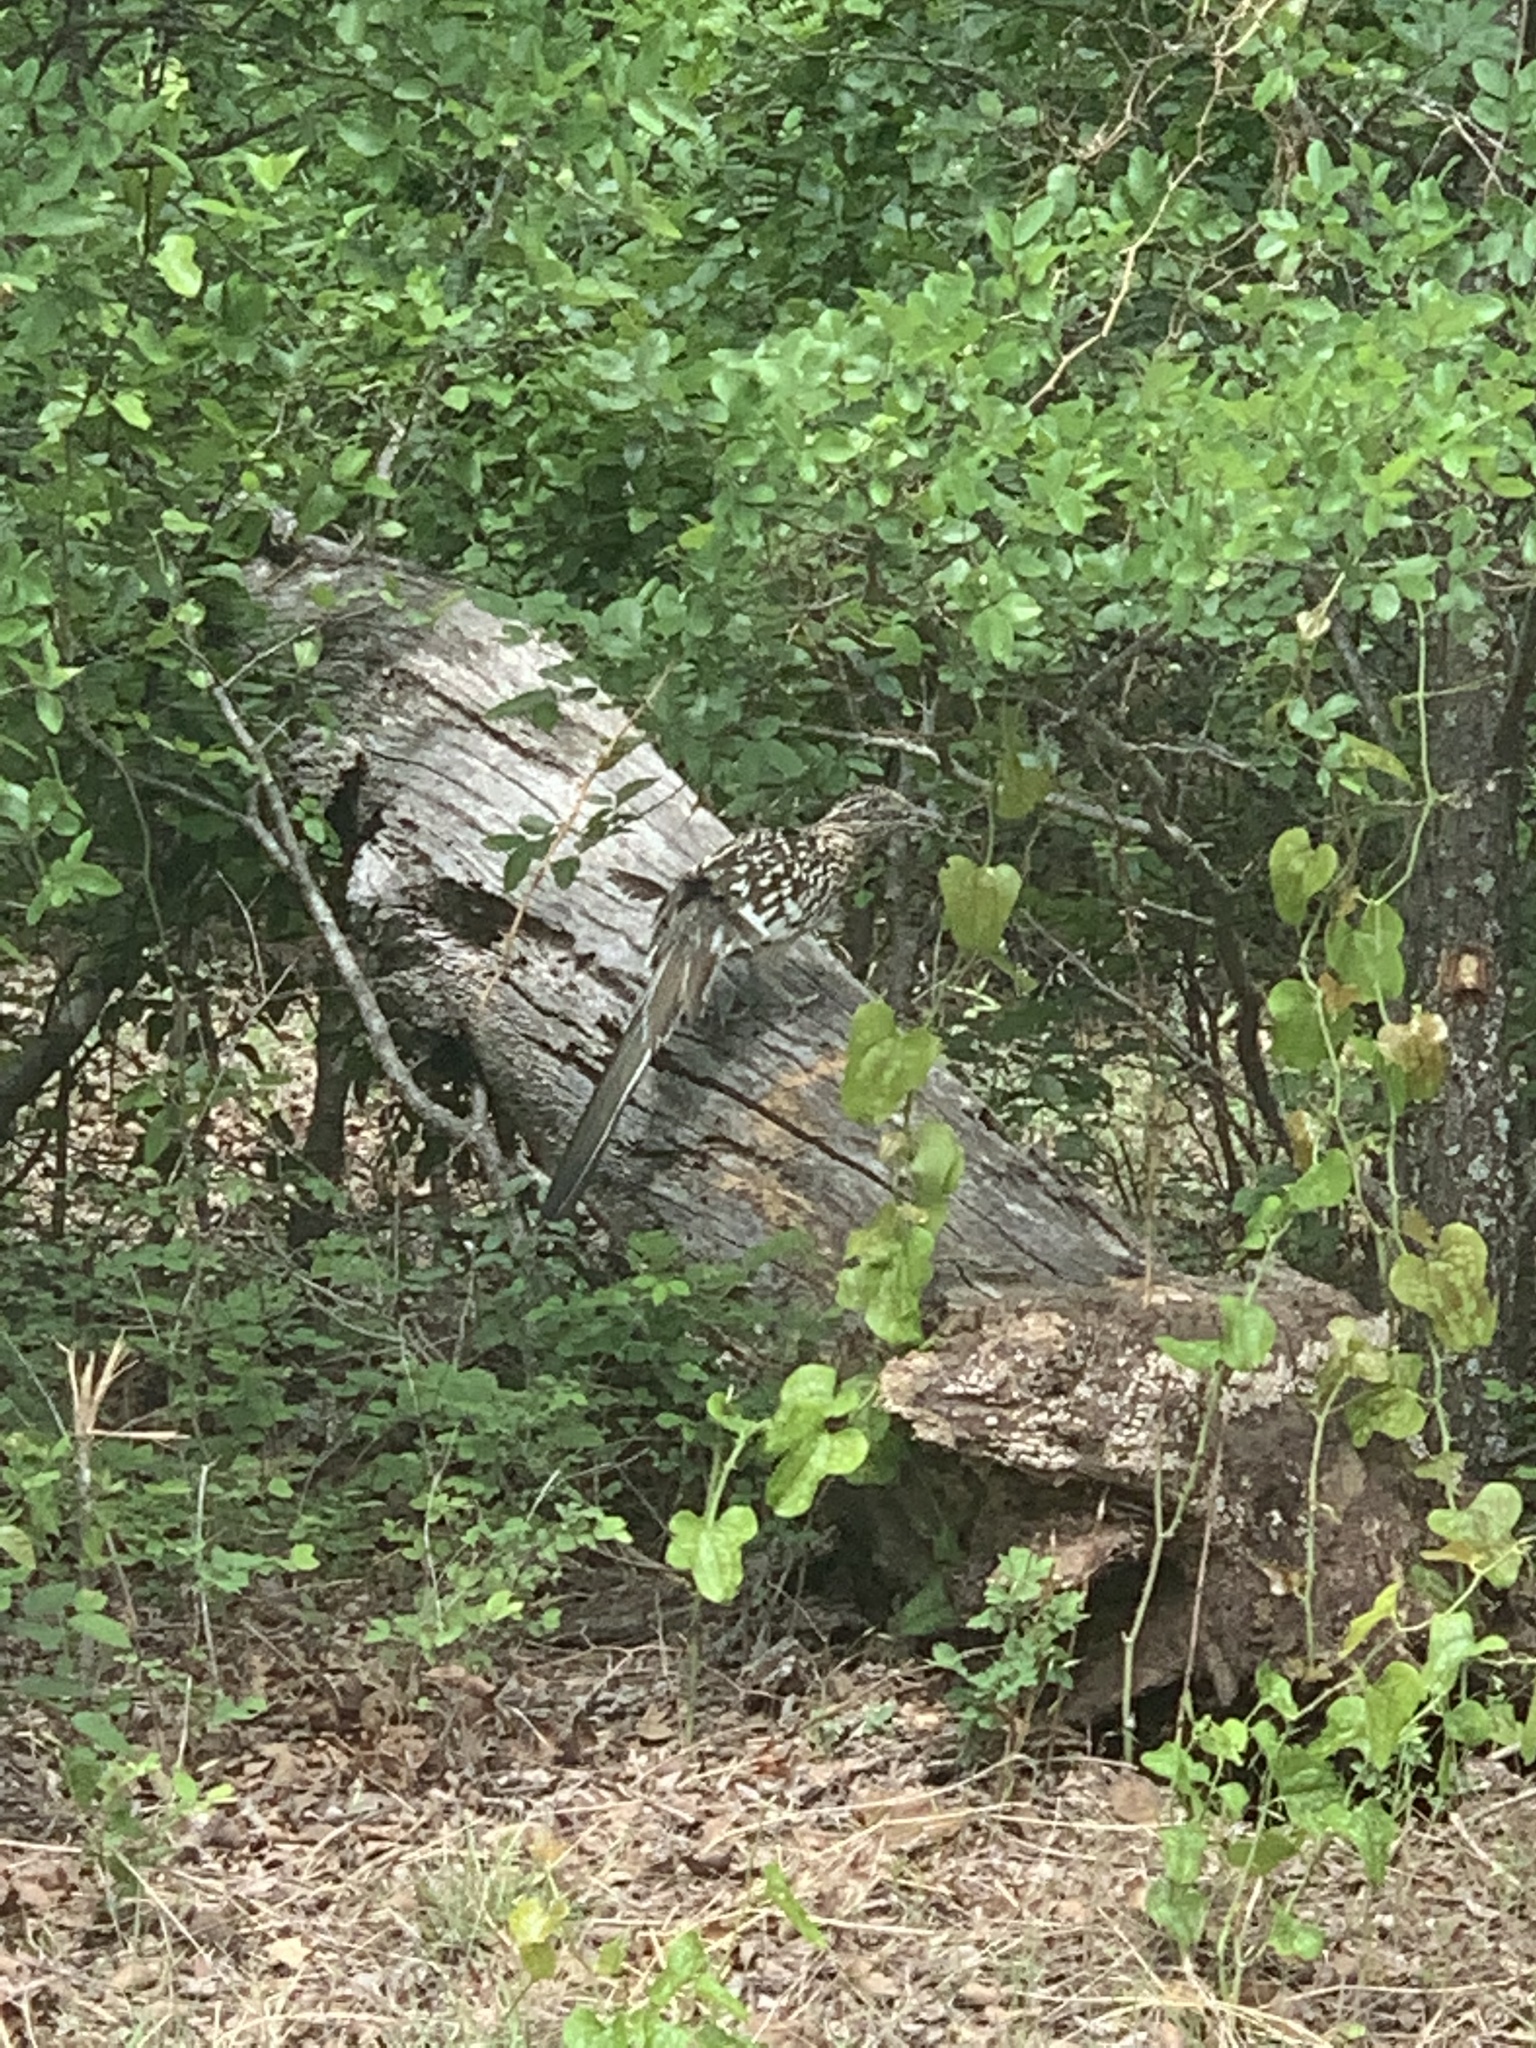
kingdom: Animalia
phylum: Chordata
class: Aves
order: Cuculiformes
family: Cuculidae
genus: Geococcyx
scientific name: Geococcyx californianus
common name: Greater roadrunner
